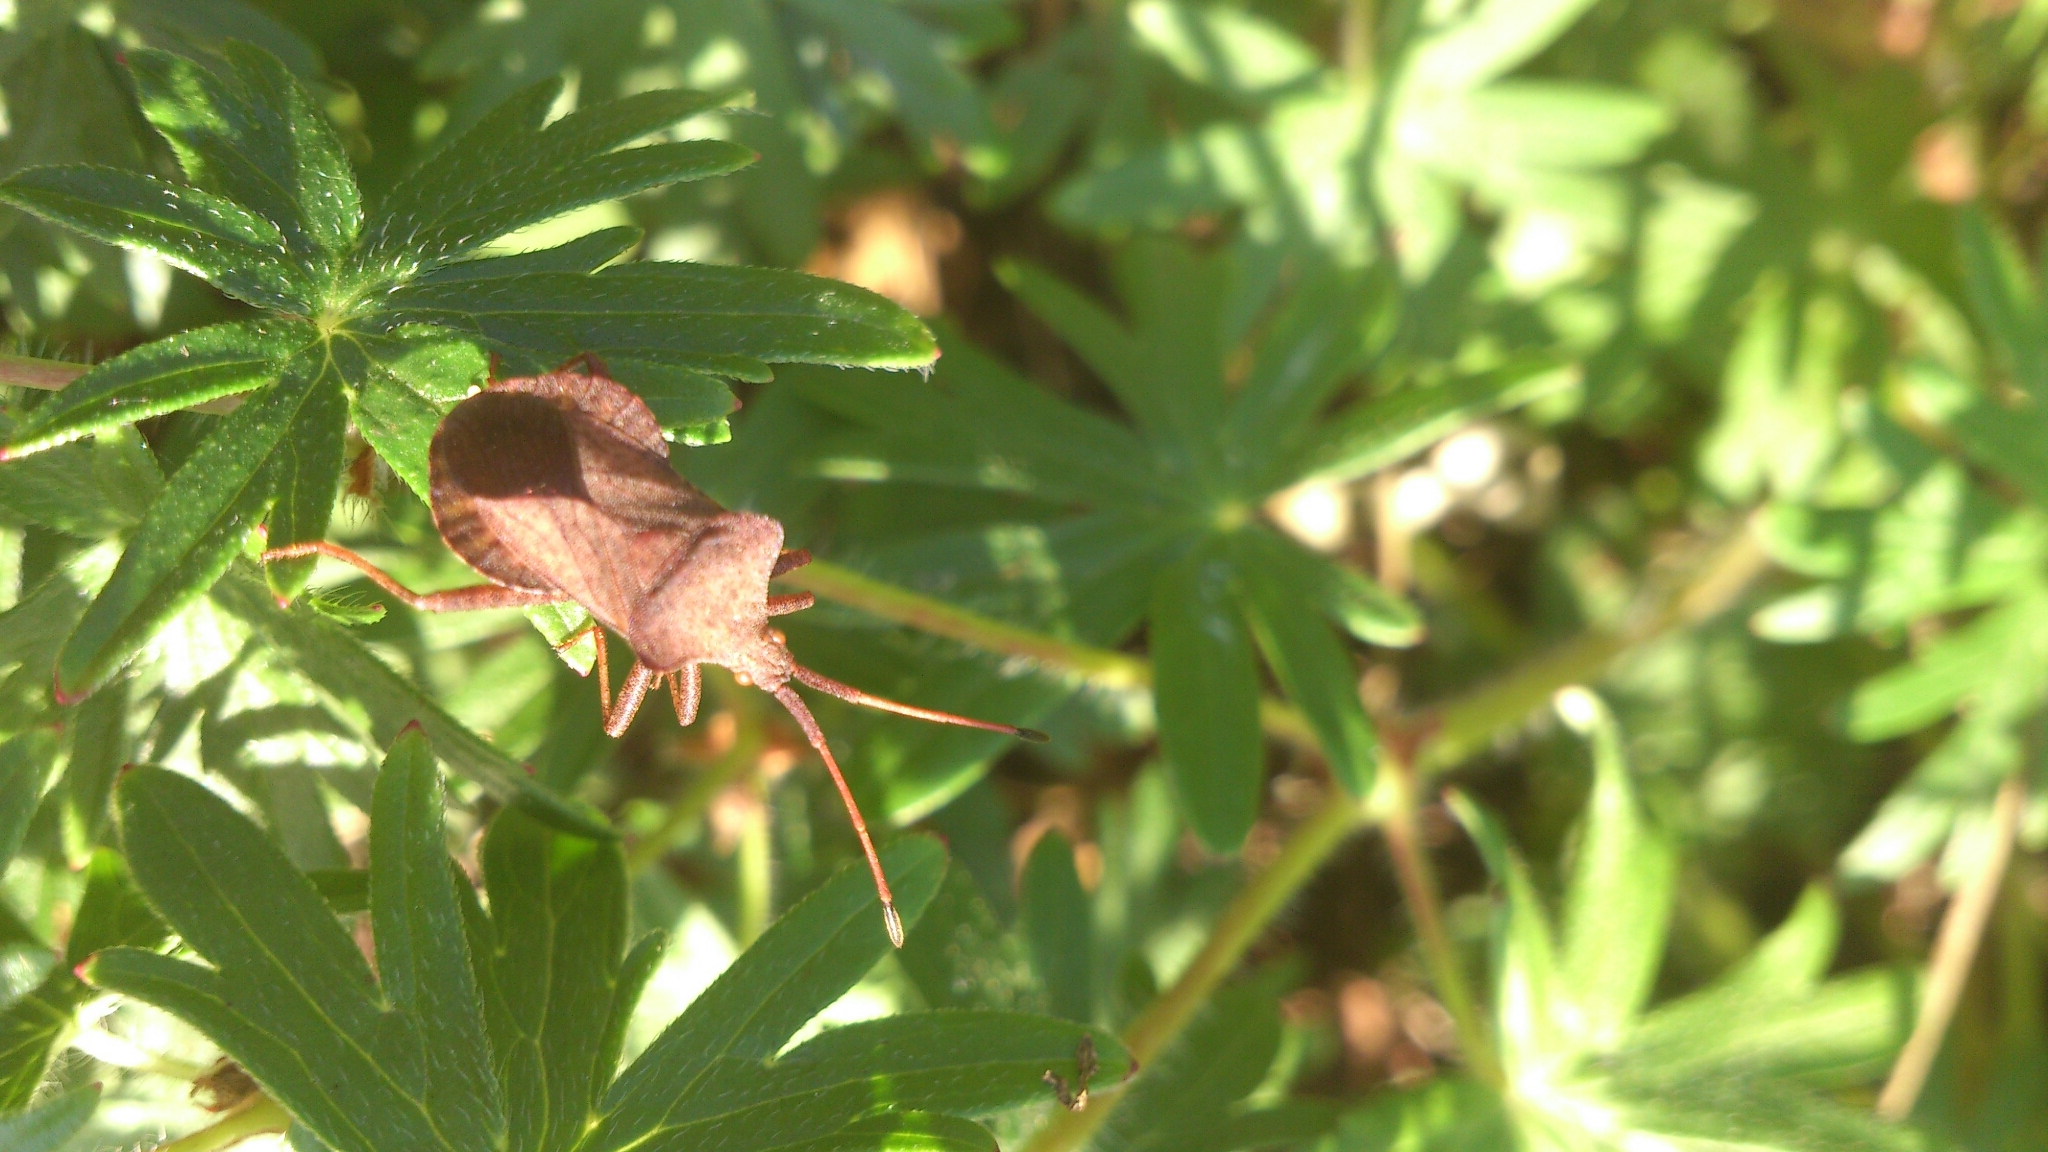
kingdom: Animalia
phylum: Arthropoda
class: Insecta
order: Hemiptera
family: Coreidae
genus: Coreus
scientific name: Coreus marginatus
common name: Dock bug
